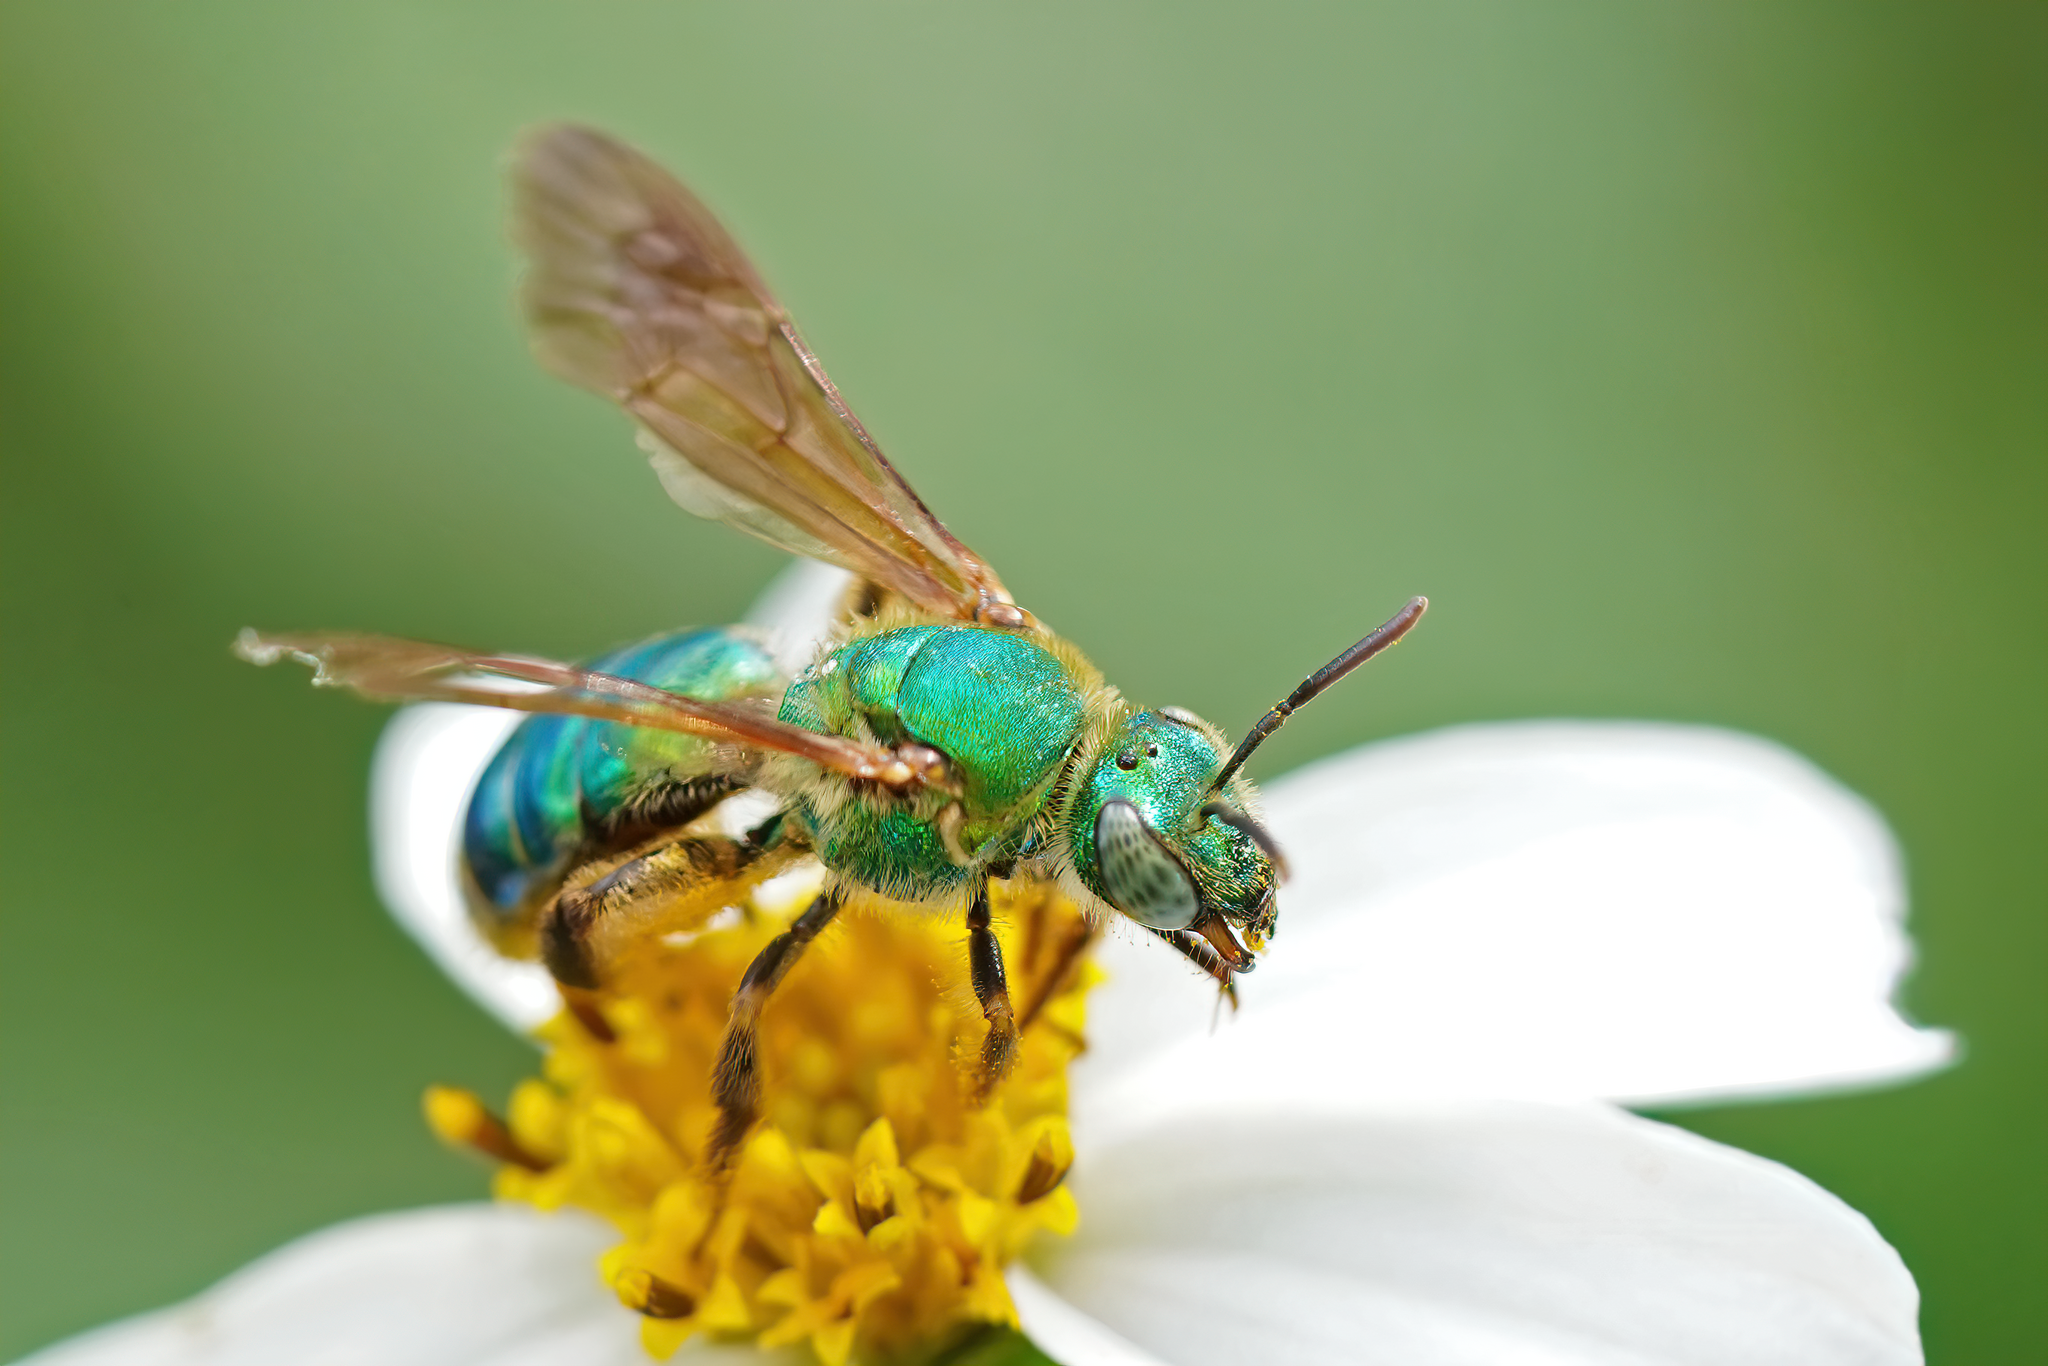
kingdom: Animalia
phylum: Arthropoda
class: Insecta
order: Hymenoptera
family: Halictidae
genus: Agapostemon
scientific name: Agapostemon splendens
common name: Brown-winged striped sweat bee
